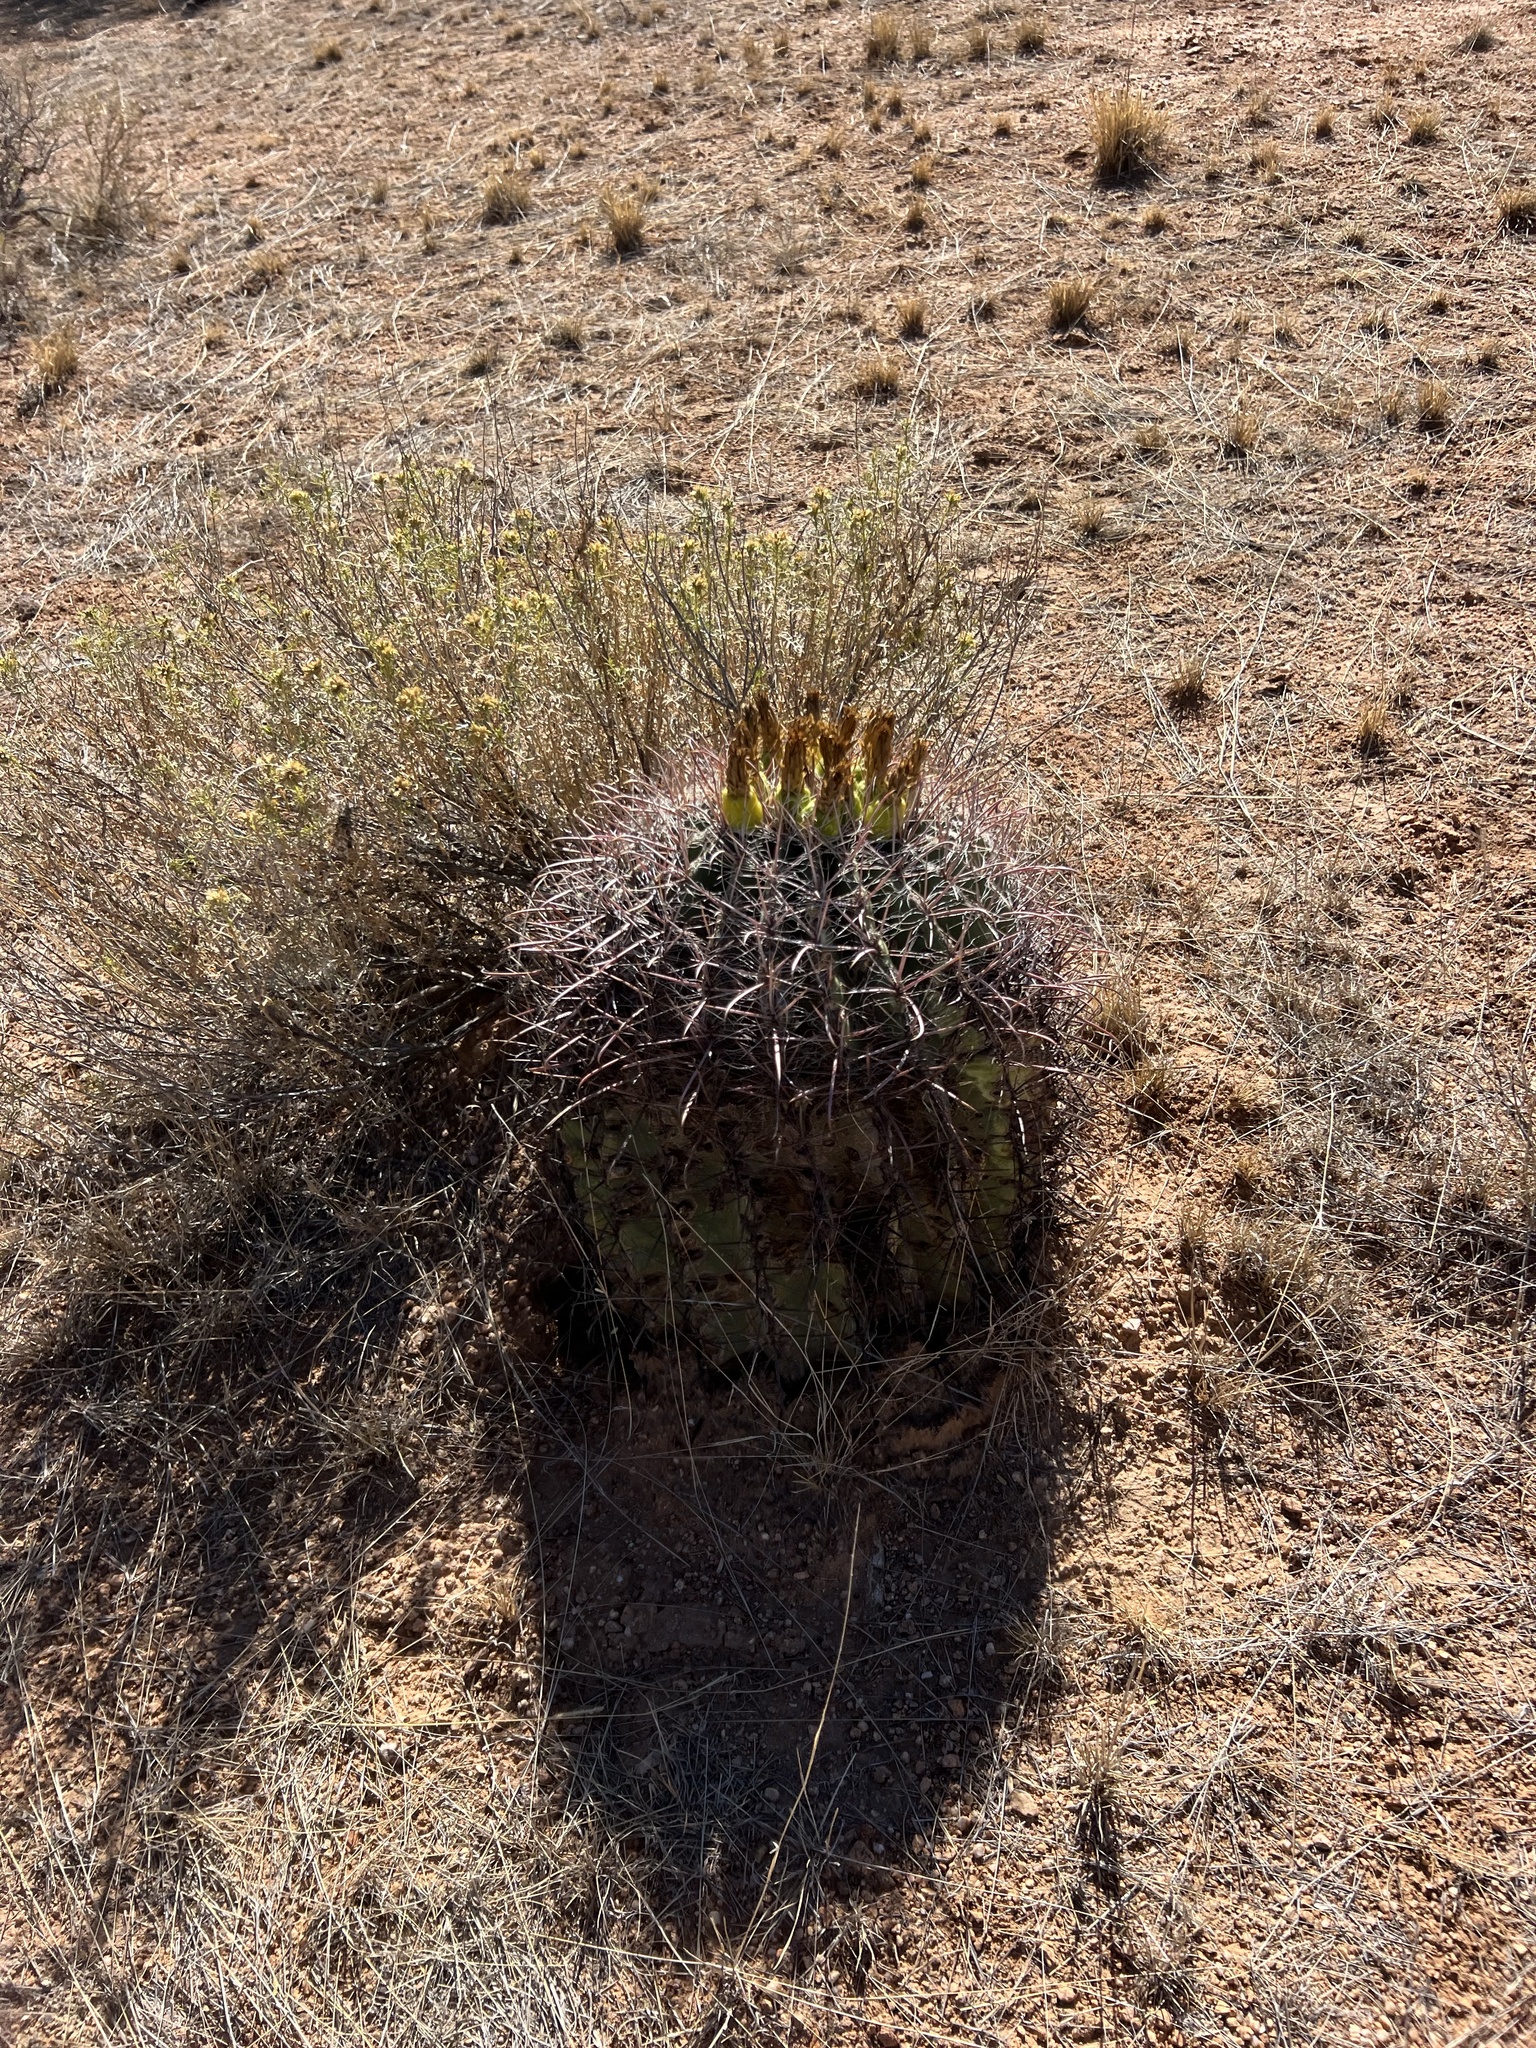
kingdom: Plantae
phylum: Tracheophyta
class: Magnoliopsida
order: Caryophyllales
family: Cactaceae
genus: Ferocactus
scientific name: Ferocactus wislizeni
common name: Candy barrel cactus
